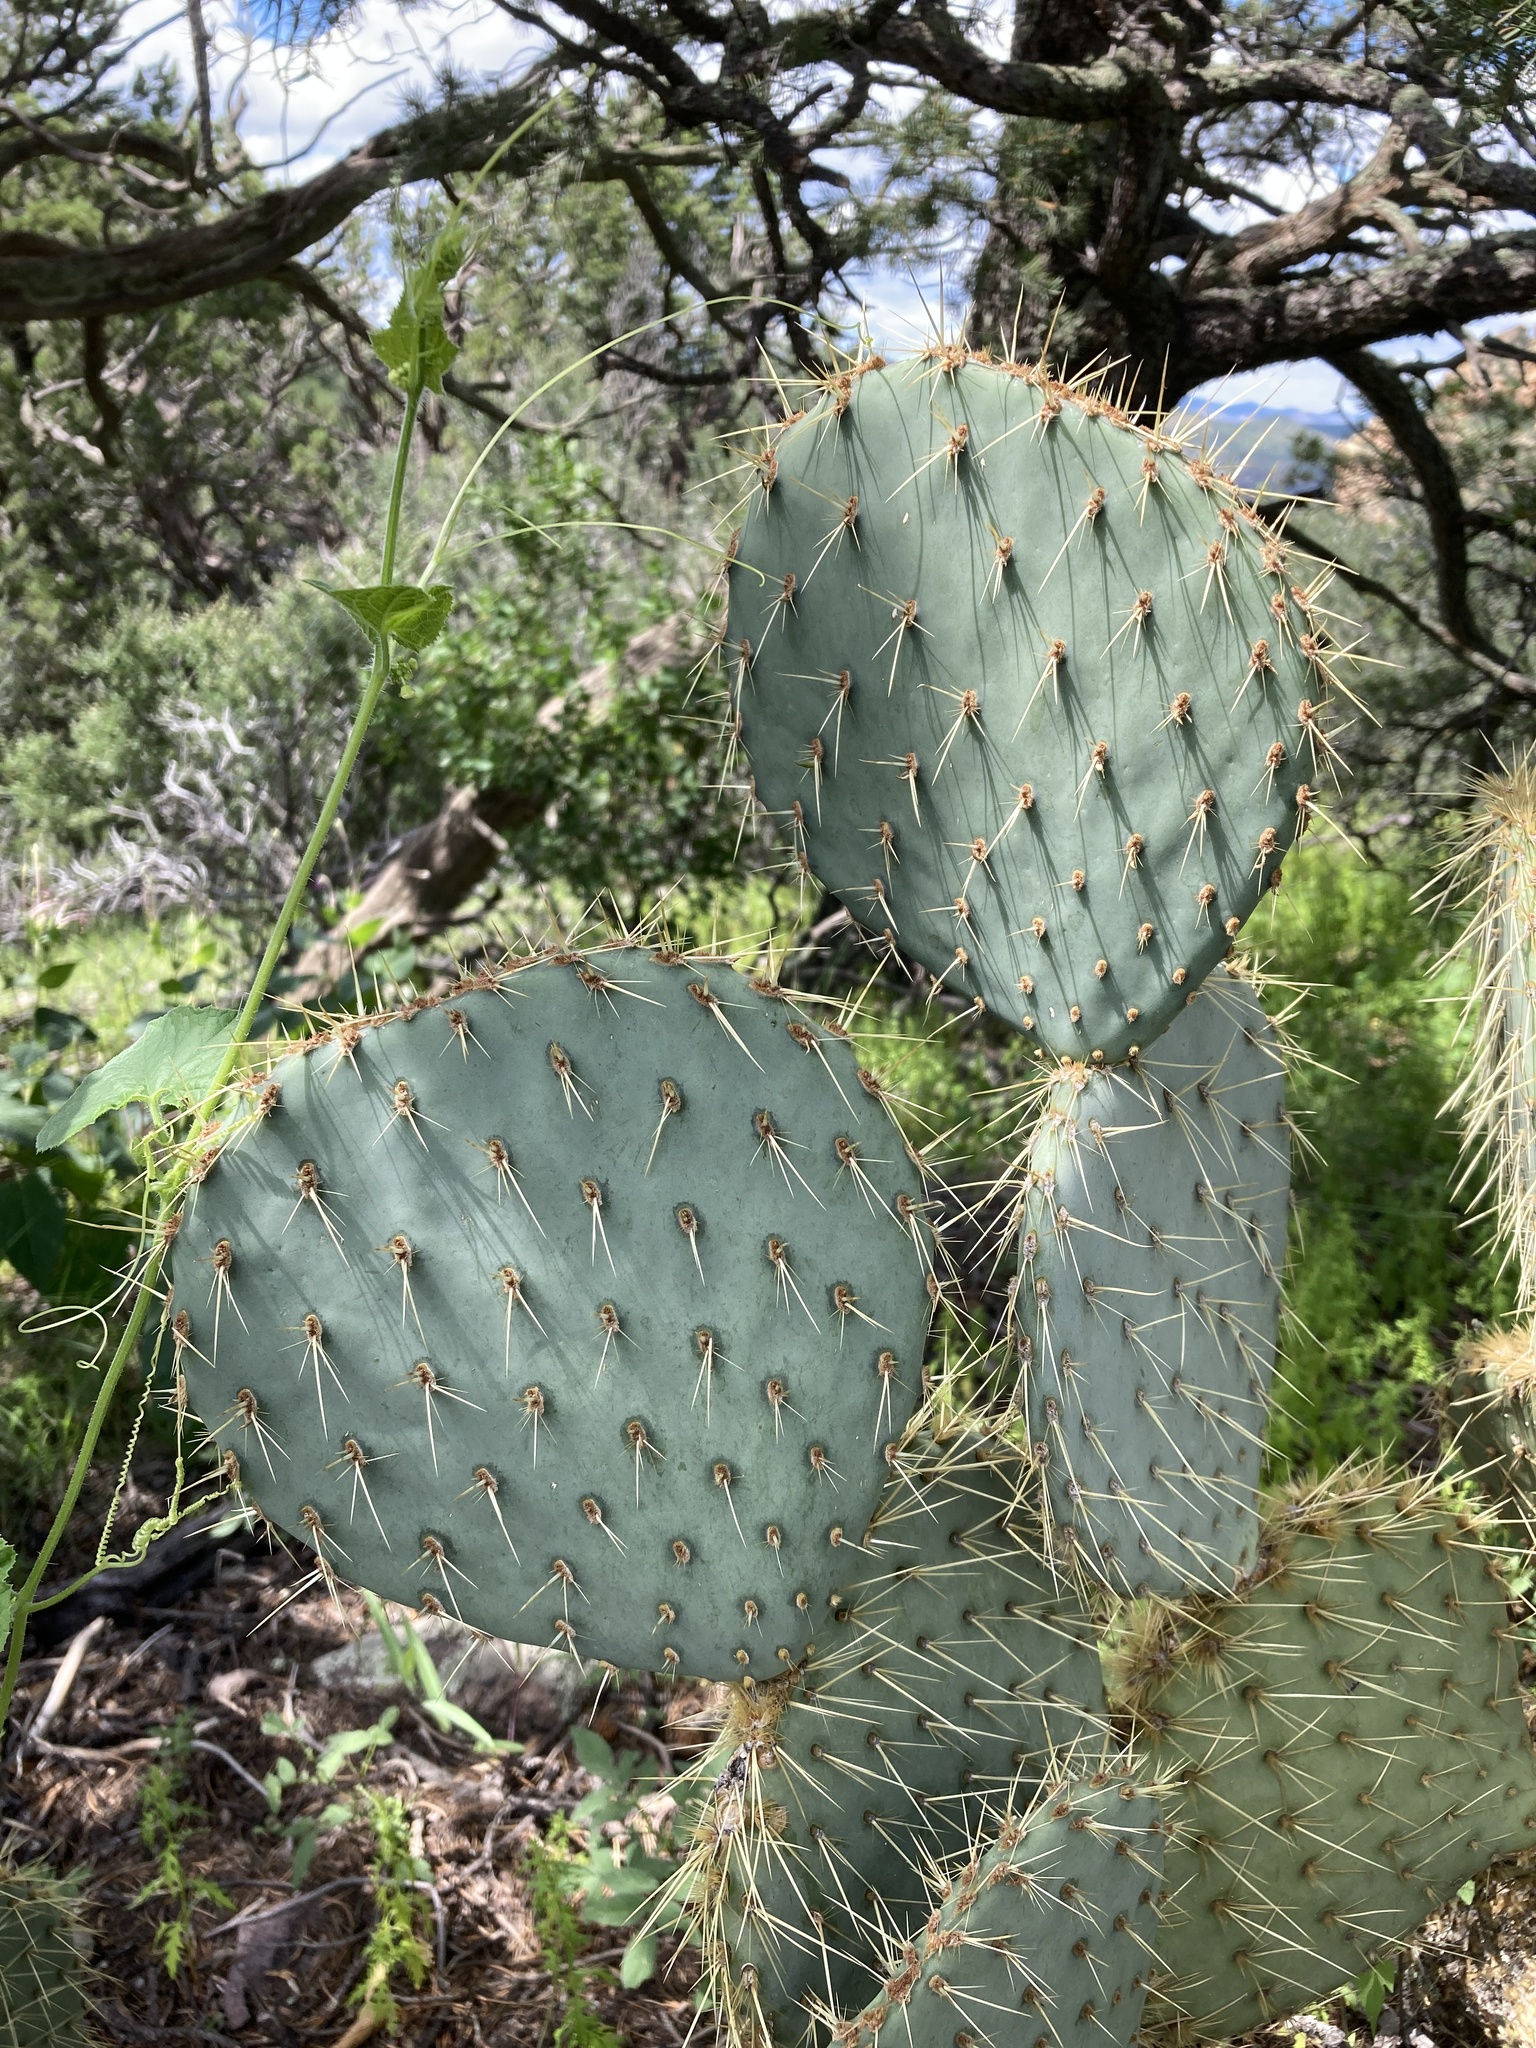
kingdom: Plantae
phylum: Tracheophyta
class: Magnoliopsida
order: Caryophyllales
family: Cactaceae
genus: Opuntia
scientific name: Opuntia chlorotica
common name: Dollar-joint prickly-pear
